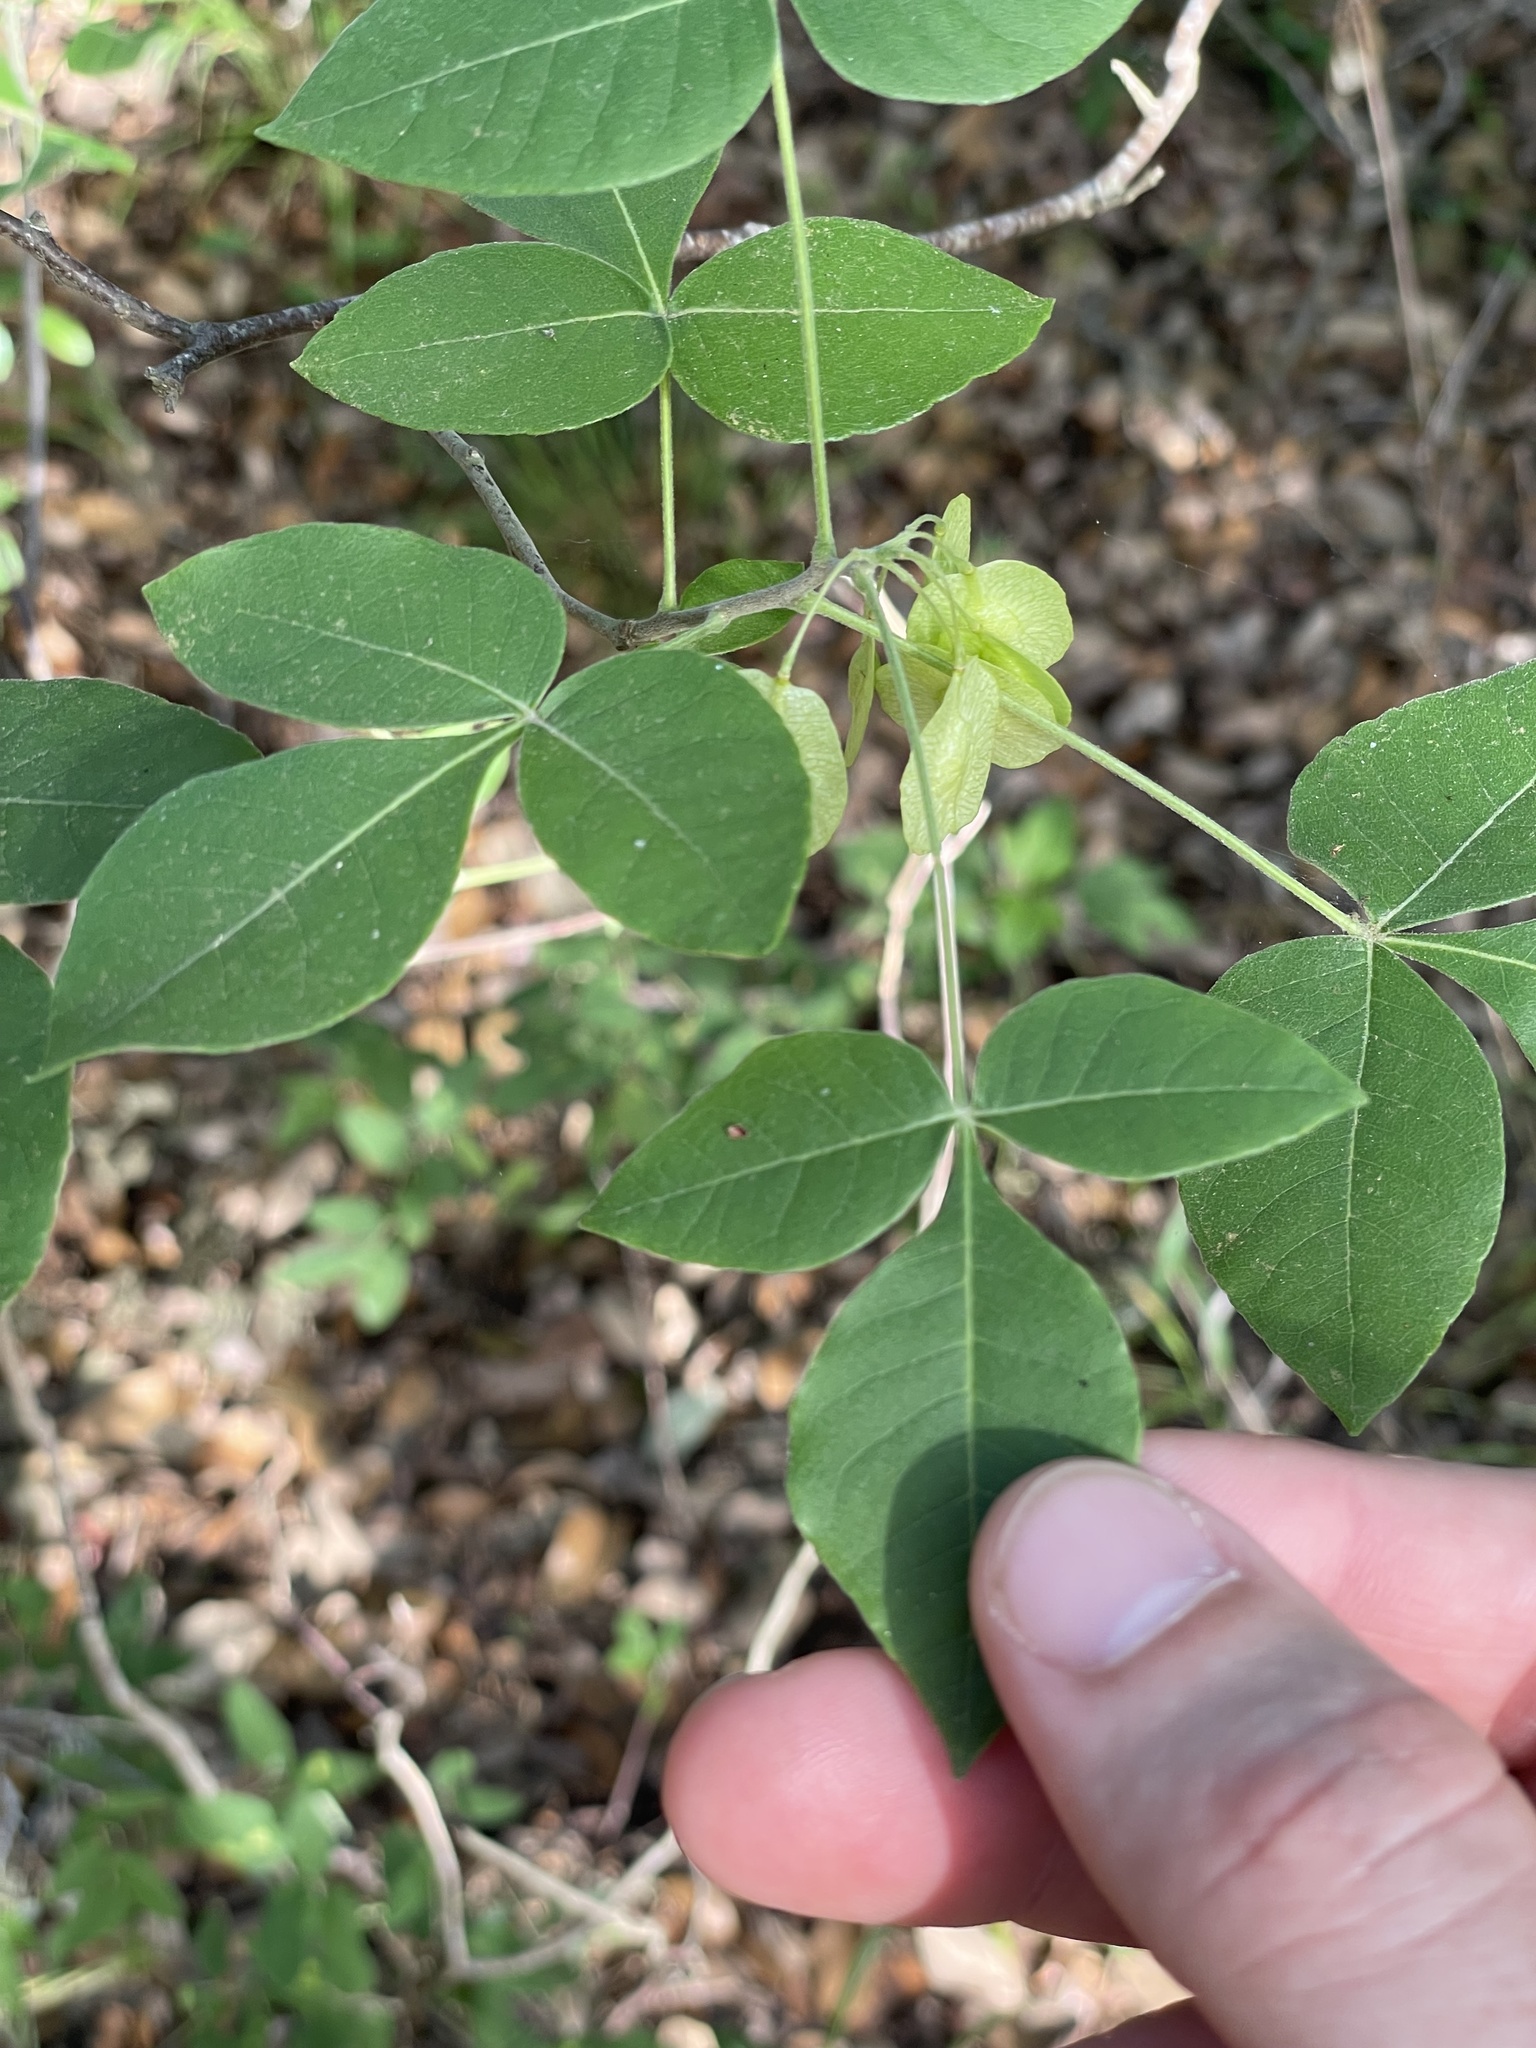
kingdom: Plantae
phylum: Tracheophyta
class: Magnoliopsida
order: Sapindales
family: Rutaceae
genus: Ptelea
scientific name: Ptelea trifoliata
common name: Common hop-tree
